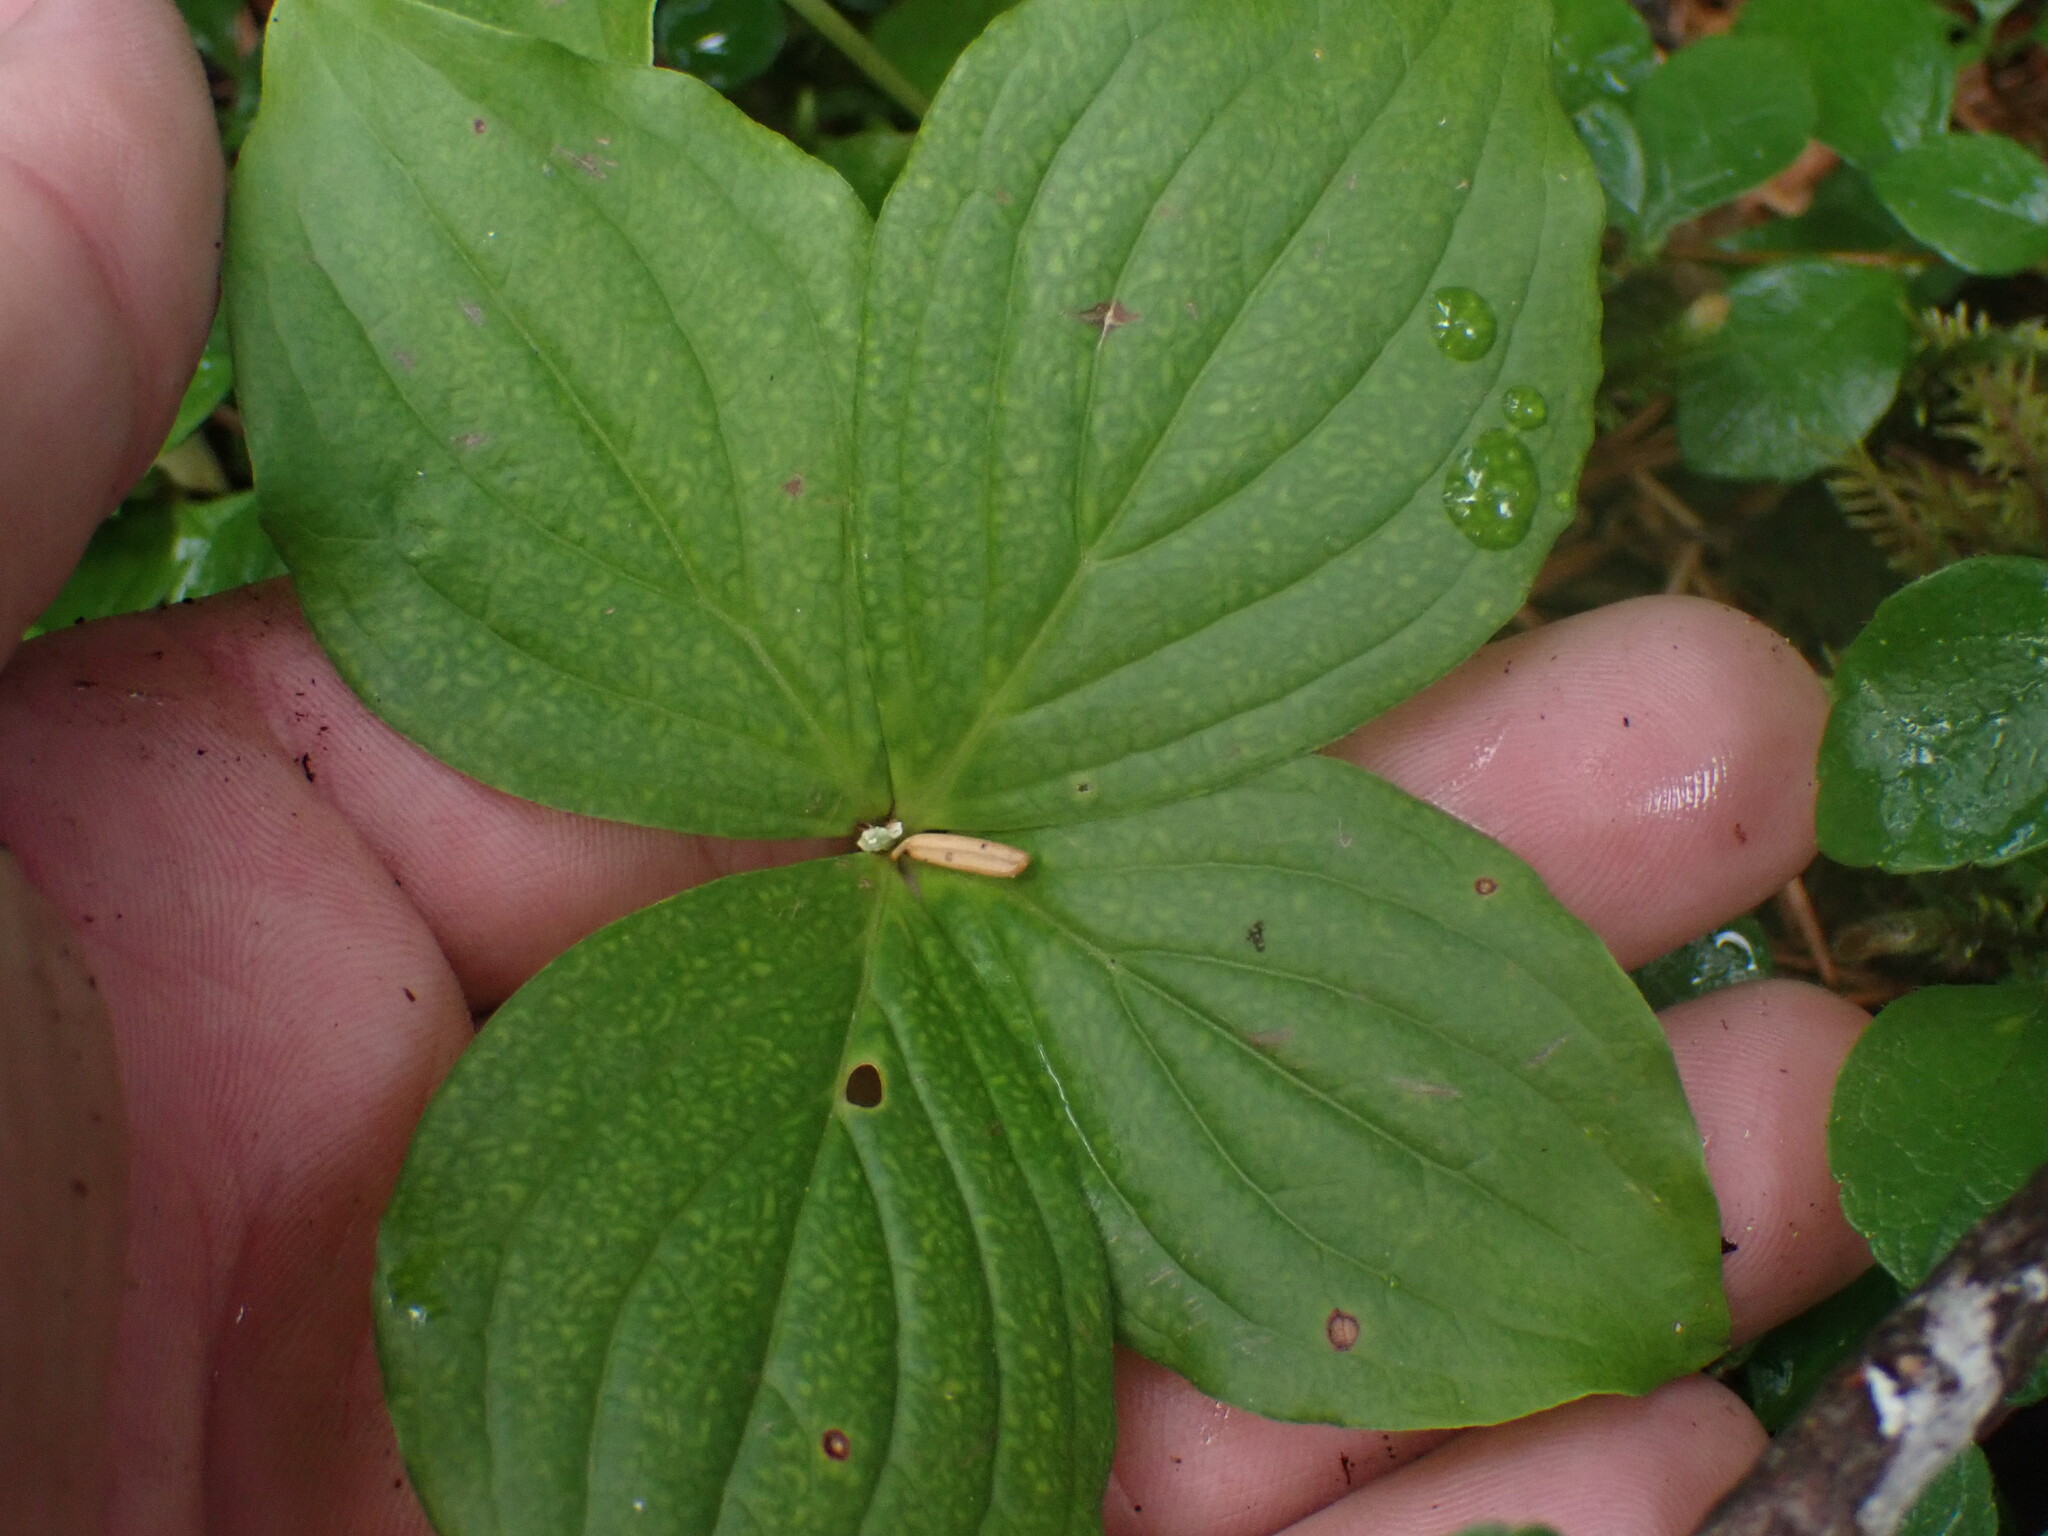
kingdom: Plantae
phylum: Tracheophyta
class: Magnoliopsida
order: Cornales
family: Cornaceae
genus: Cornus
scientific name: Cornus unalaschkensis
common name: Alaska bunchberry
